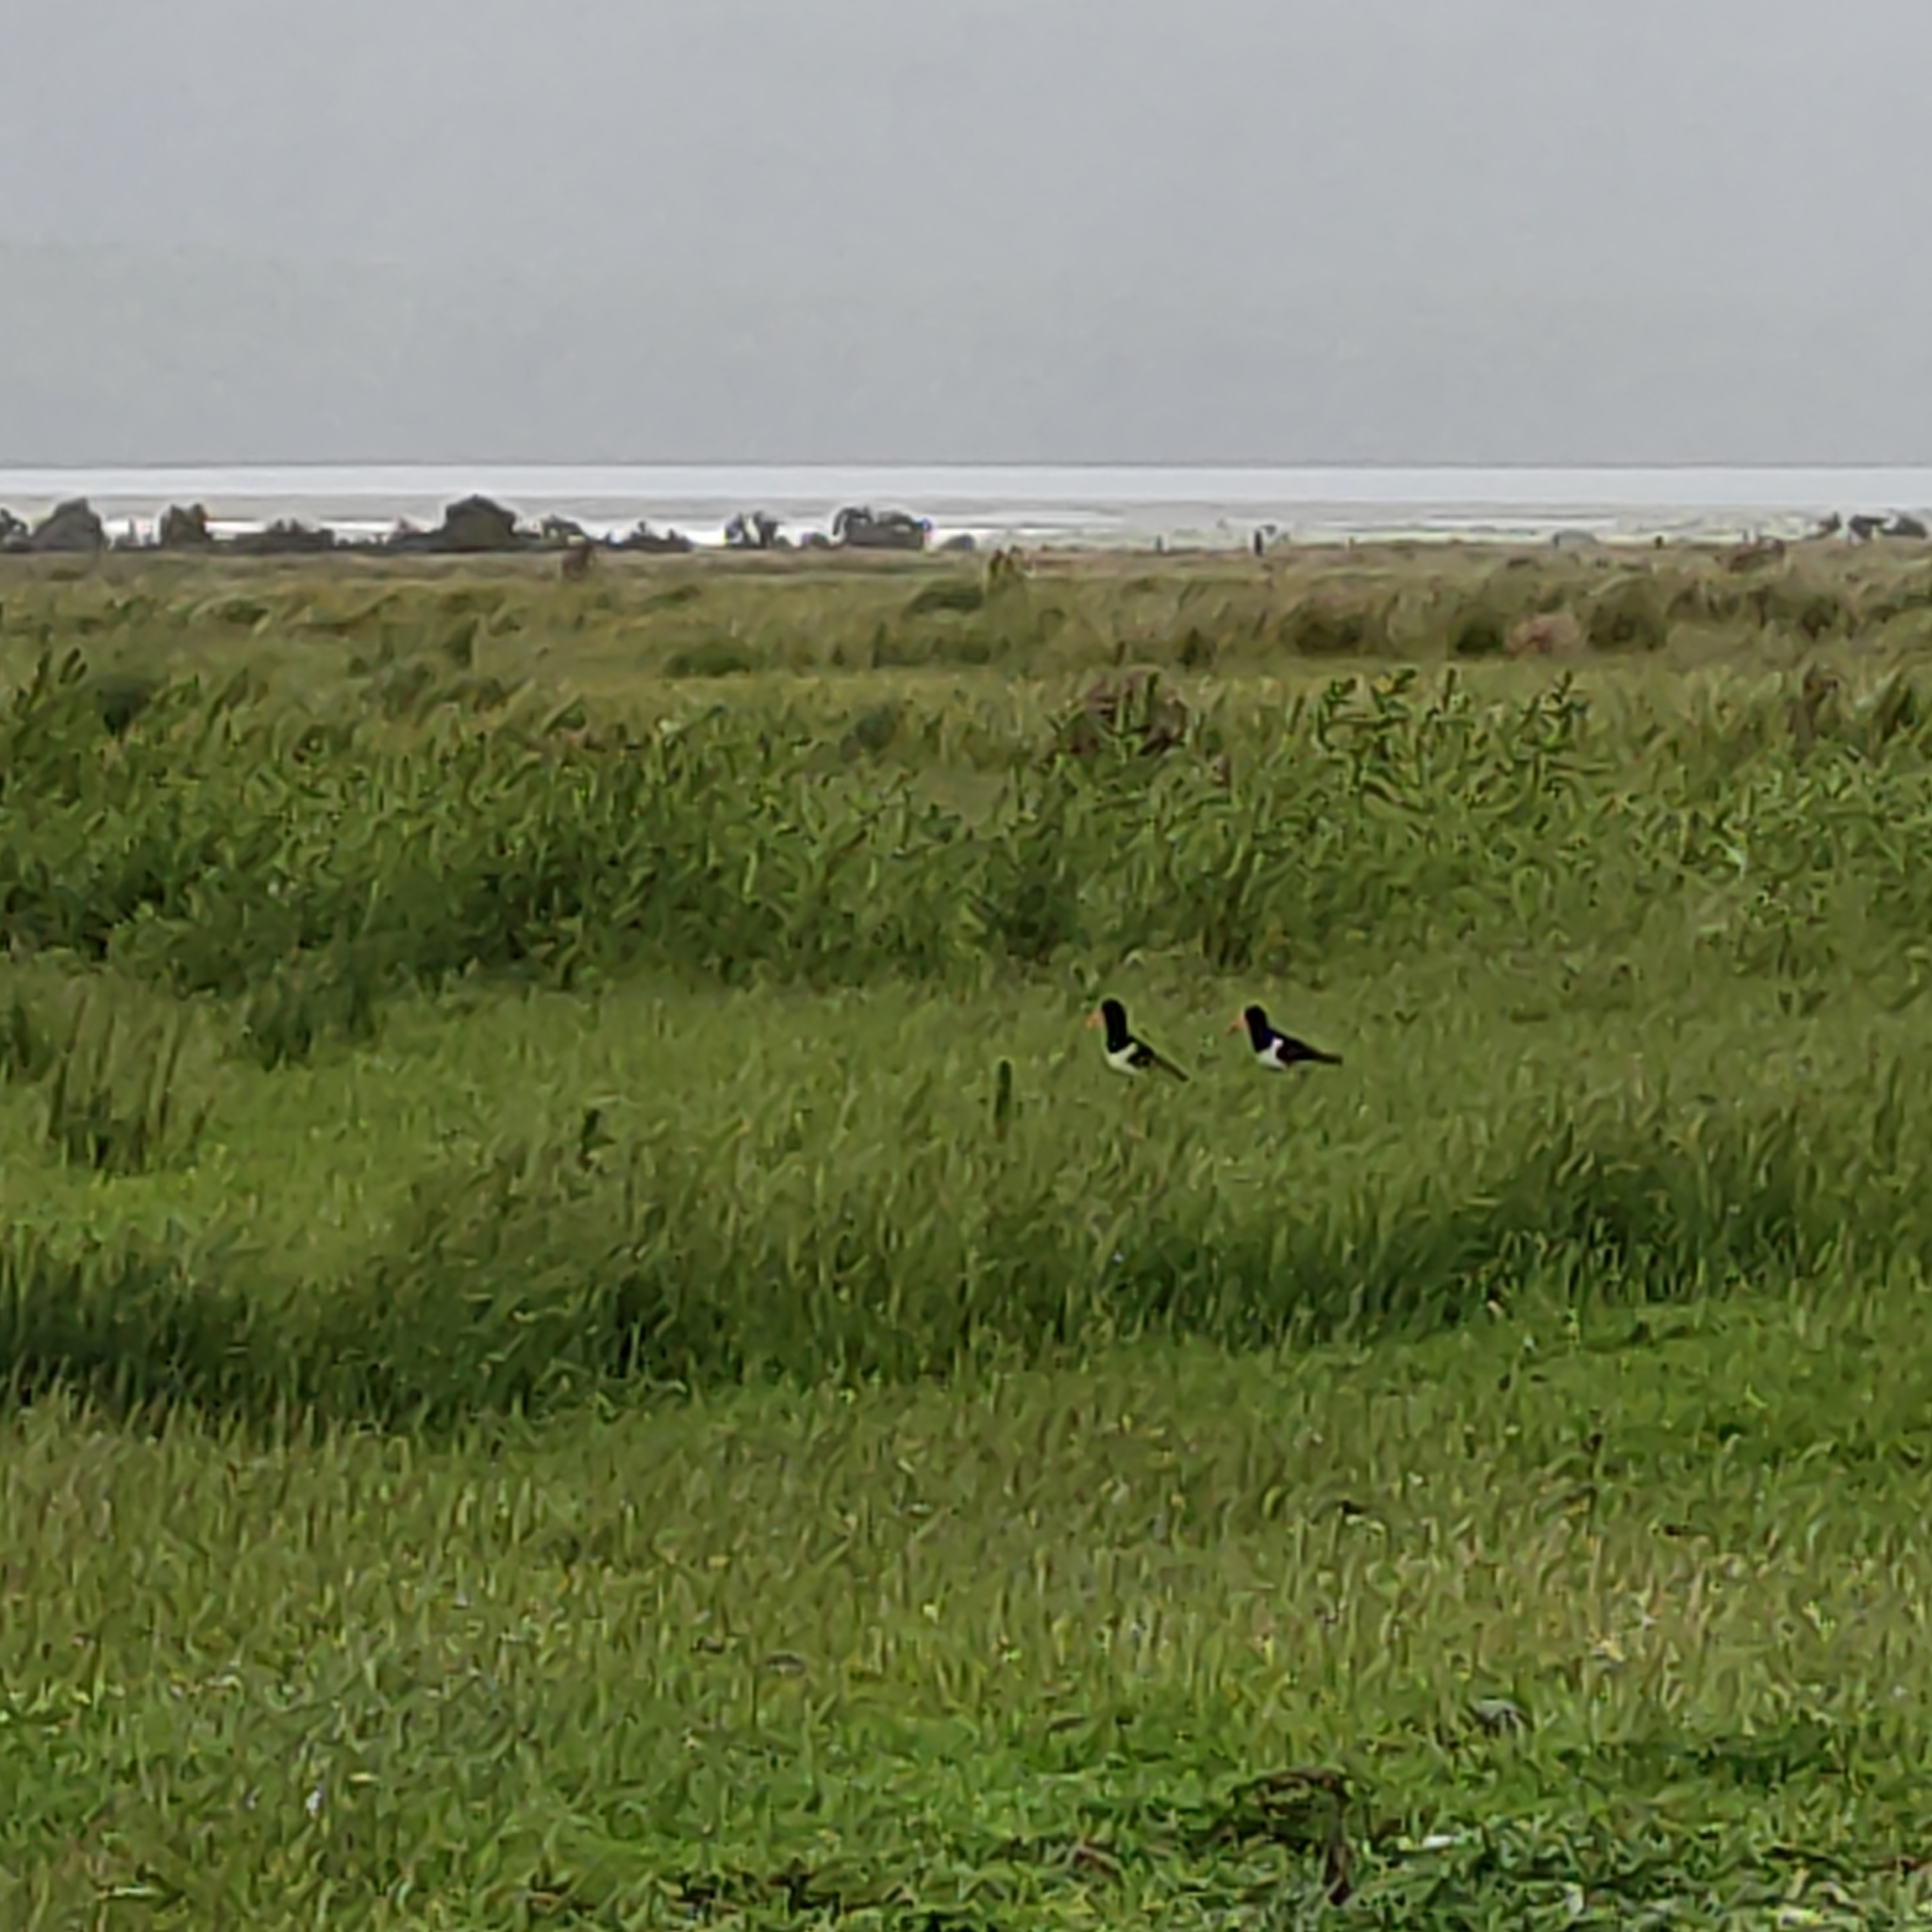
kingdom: Animalia
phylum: Chordata
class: Aves
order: Charadriiformes
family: Haematopodidae
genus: Haematopus
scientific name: Haematopus finschi
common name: South island oystercatcher
